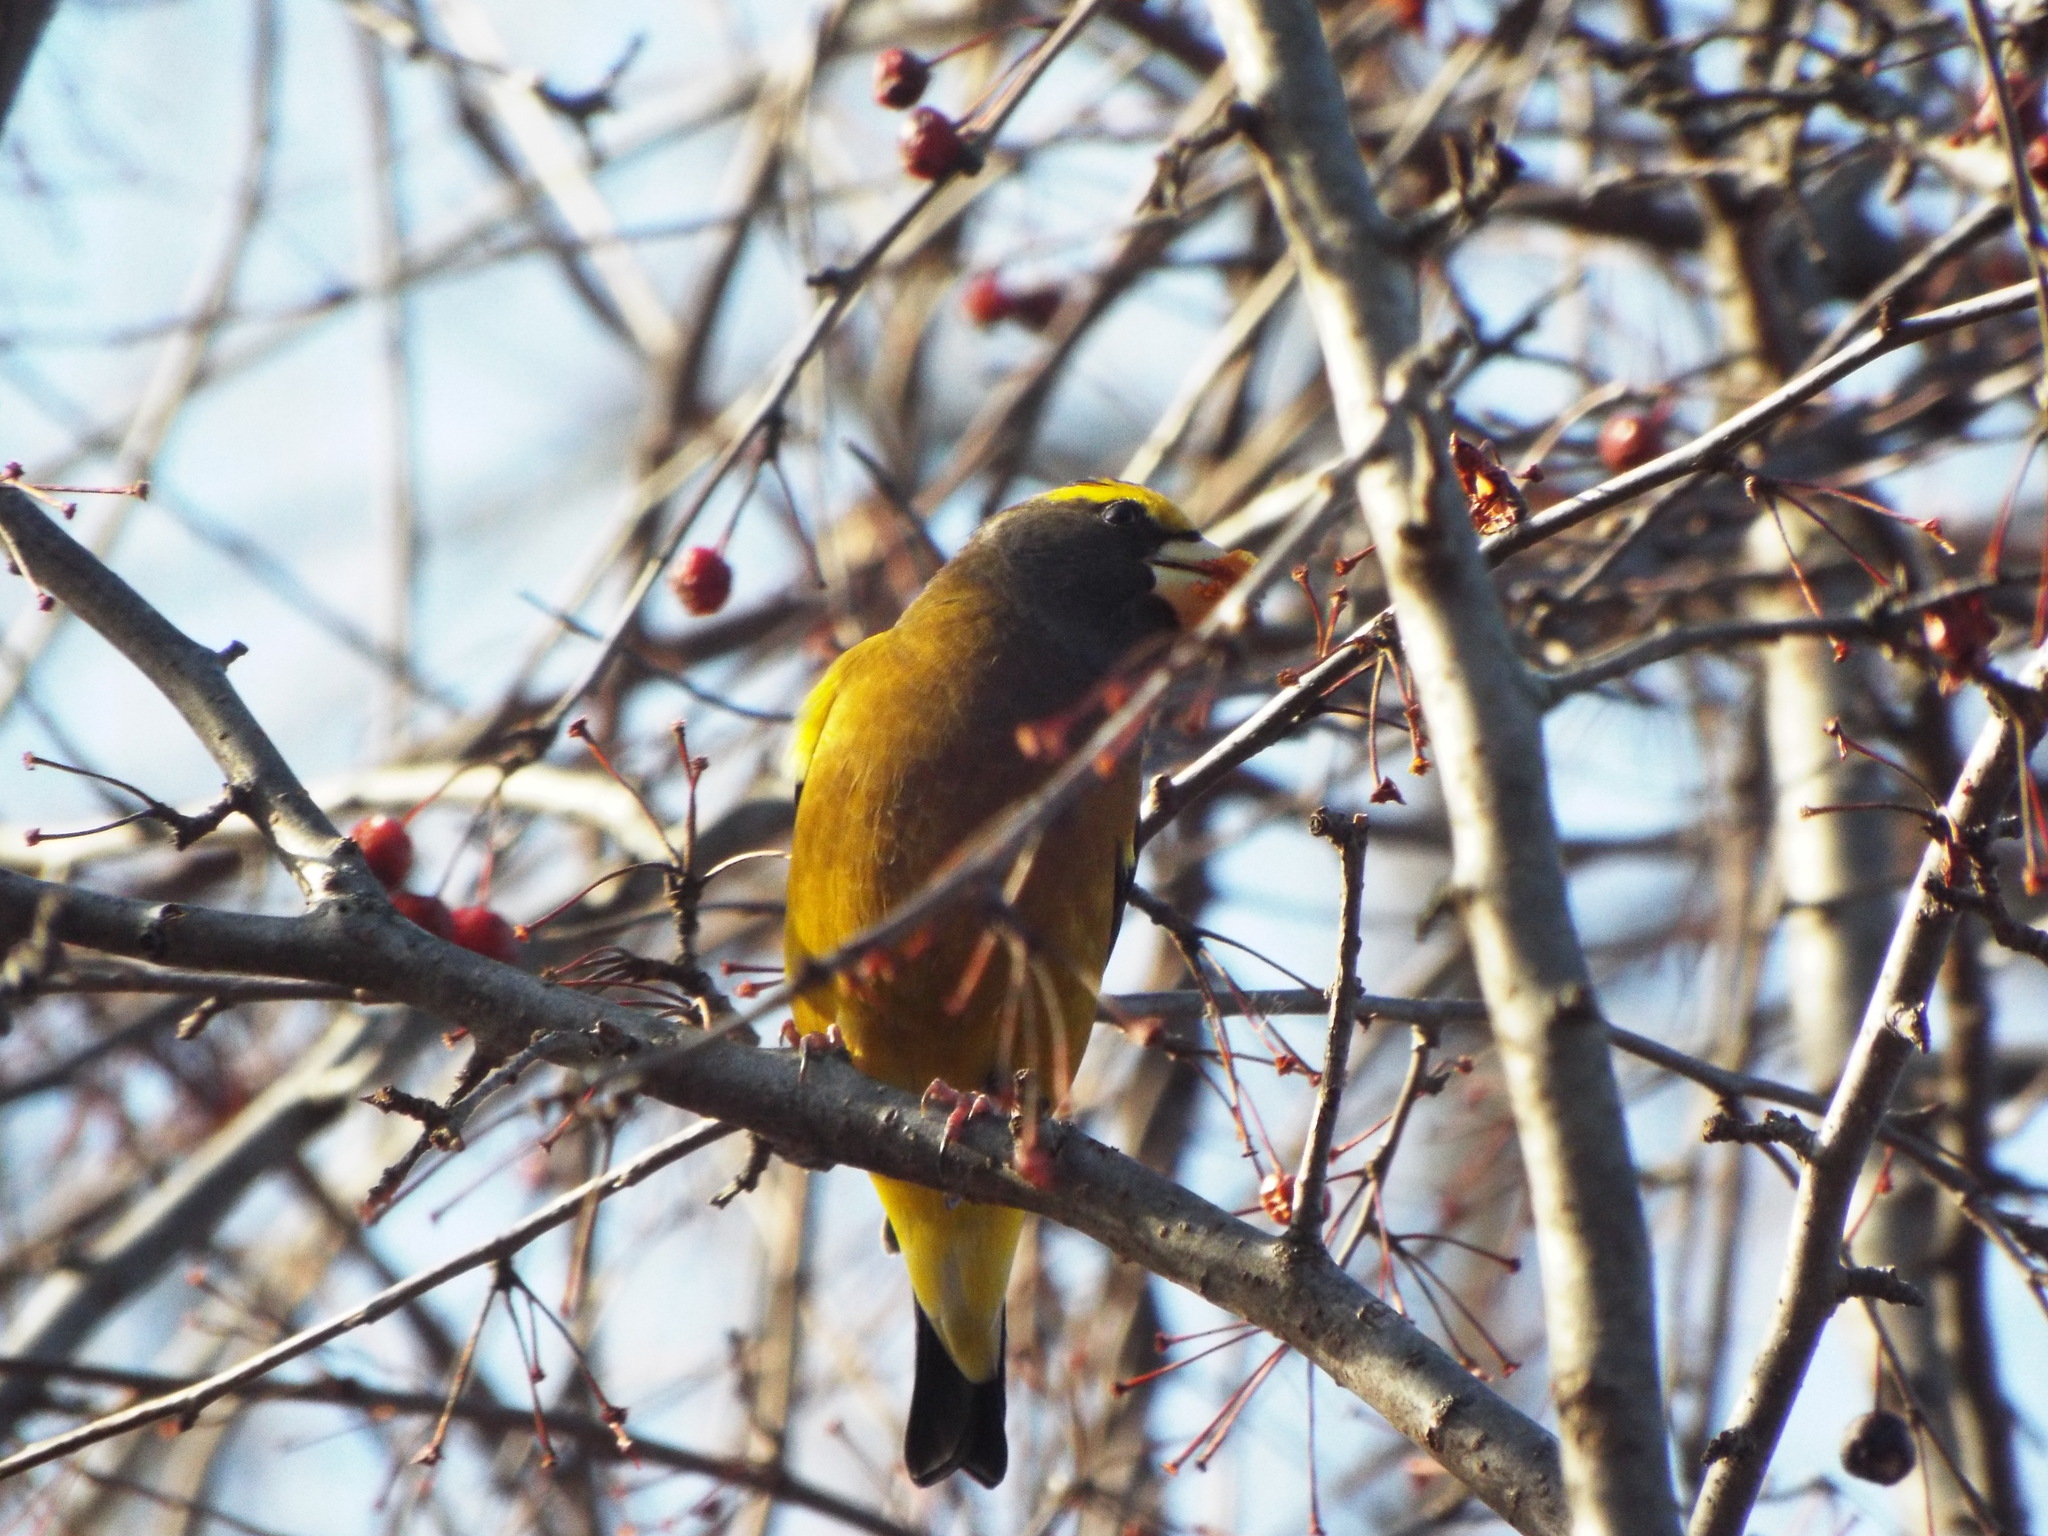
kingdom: Animalia
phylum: Chordata
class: Aves
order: Passeriformes
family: Fringillidae
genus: Hesperiphona
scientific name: Hesperiphona vespertina
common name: Evening grosbeak
